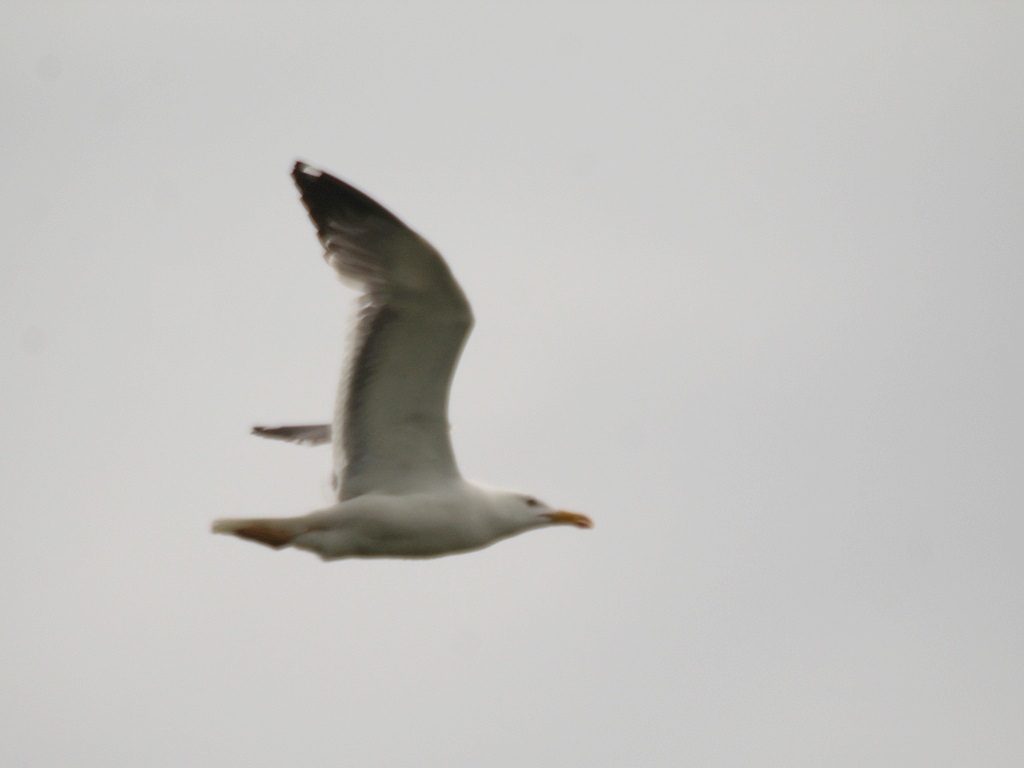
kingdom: Animalia
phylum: Chordata
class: Aves
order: Charadriiformes
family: Laridae
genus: Larus
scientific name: Larus fuscus
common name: Lesser black-backed gull
